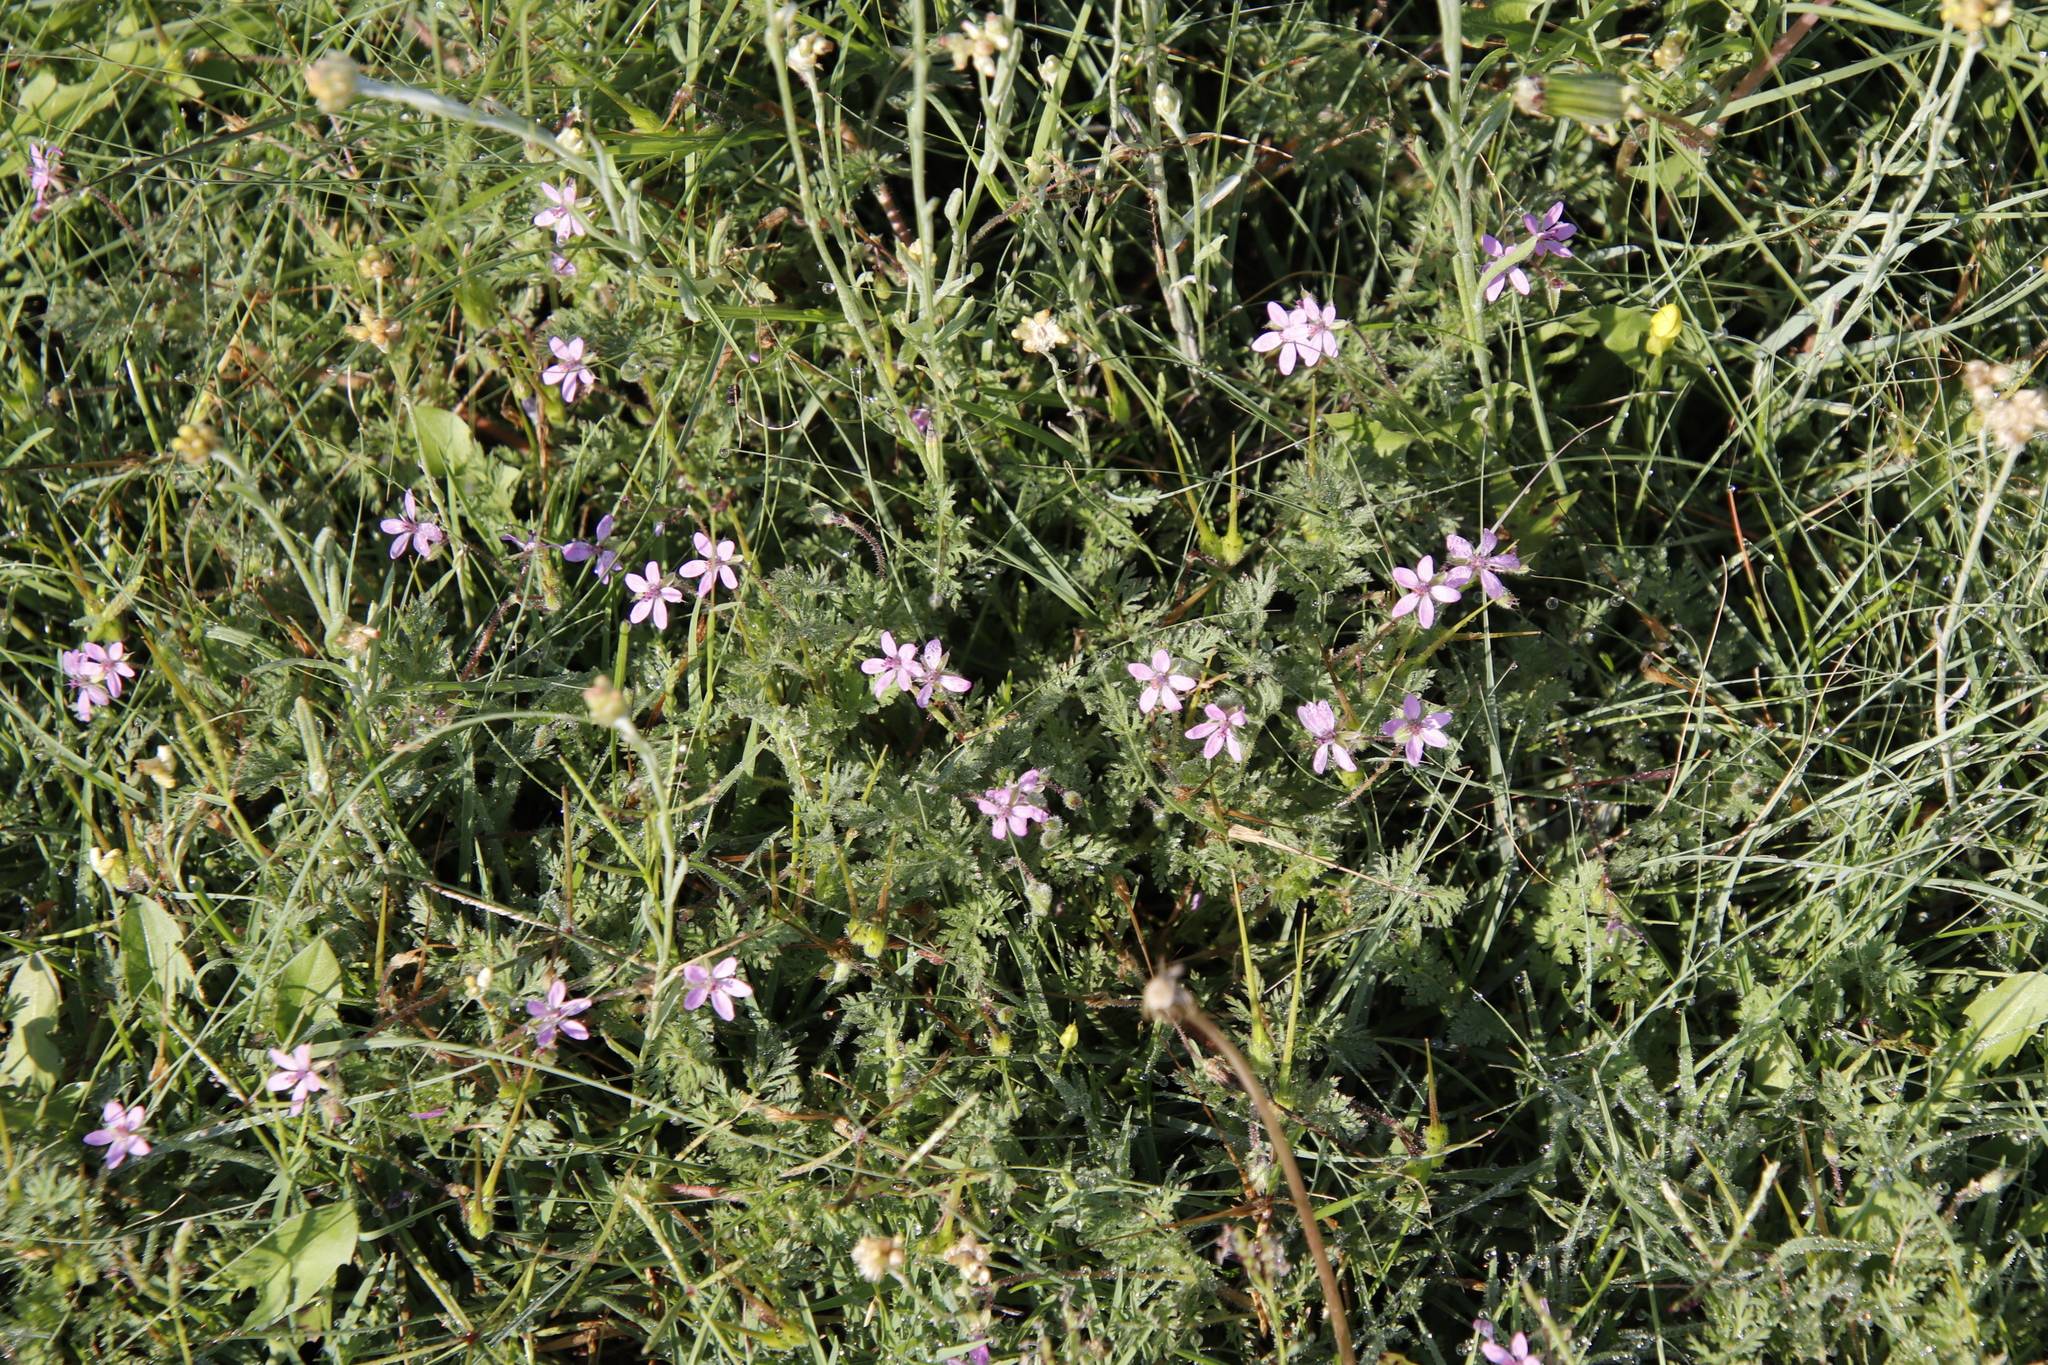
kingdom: Plantae
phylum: Tracheophyta
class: Magnoliopsida
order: Geraniales
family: Geraniaceae
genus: Erodium
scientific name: Erodium cicutarium
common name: Common stork's-bill
